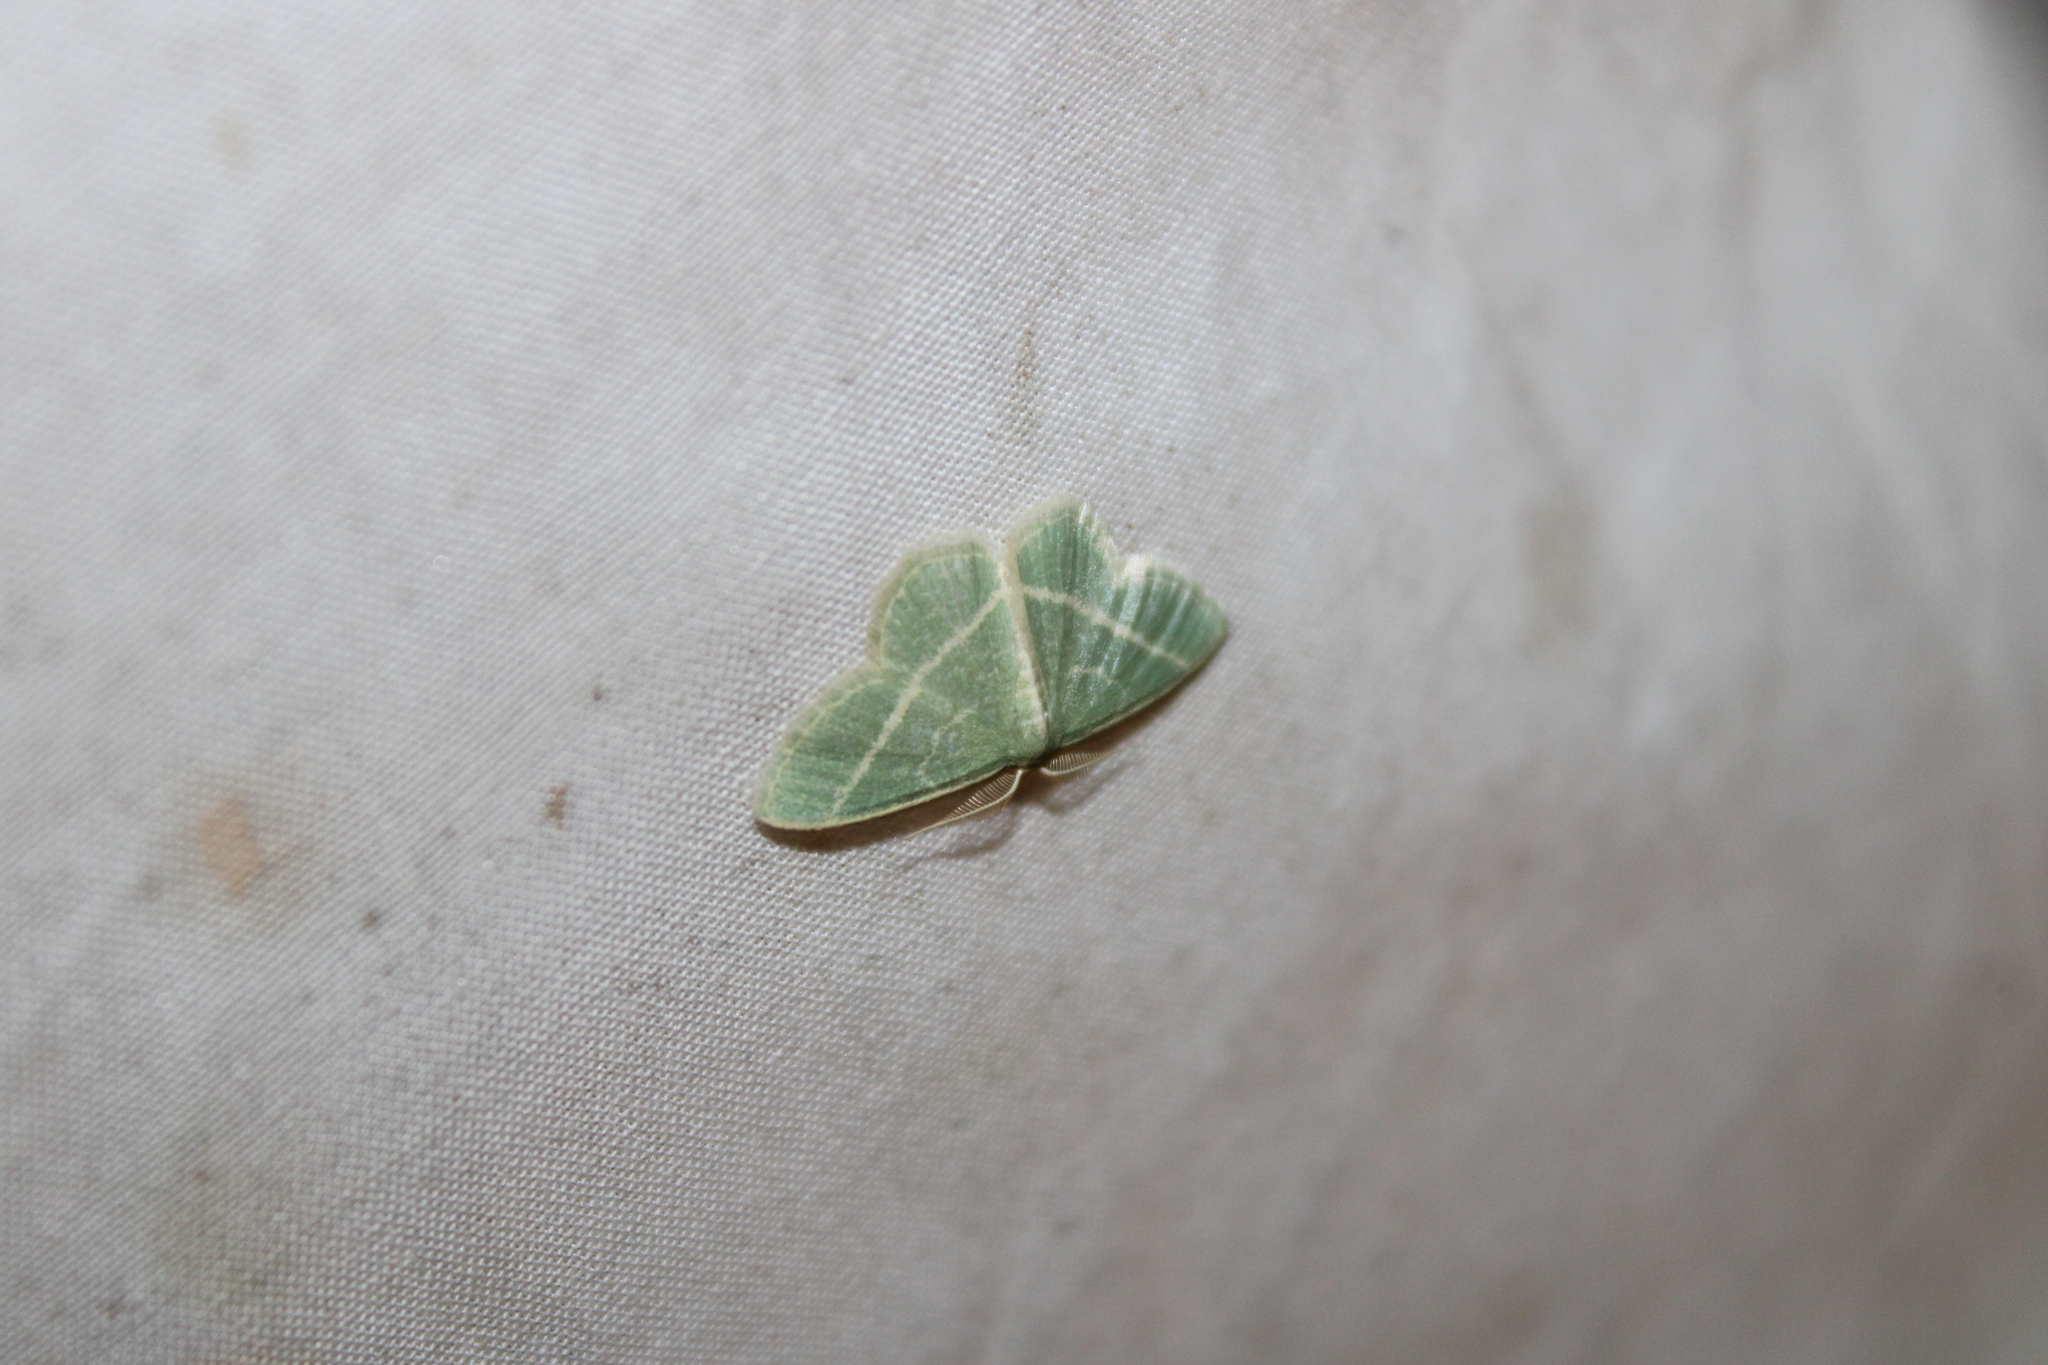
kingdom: Animalia
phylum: Arthropoda
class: Insecta
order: Lepidoptera
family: Geometridae
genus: Chlorochlamys
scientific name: Chlorochlamys chloroleucaria
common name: Blackberry looper
